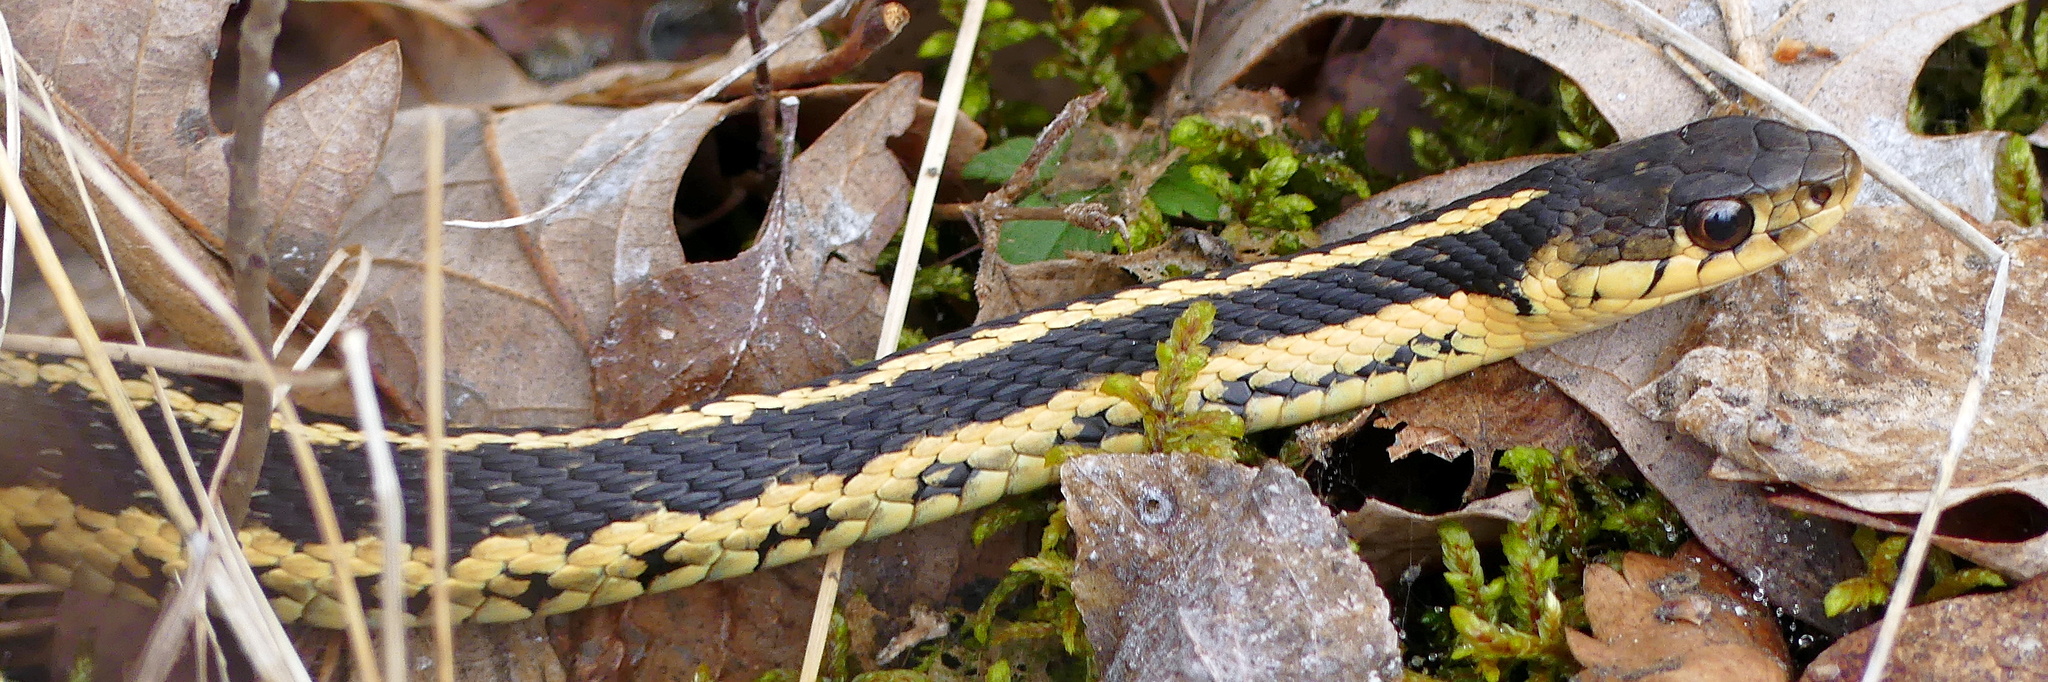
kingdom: Animalia
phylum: Chordata
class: Squamata
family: Colubridae
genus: Thamnophis
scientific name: Thamnophis sirtalis
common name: Common garter snake
